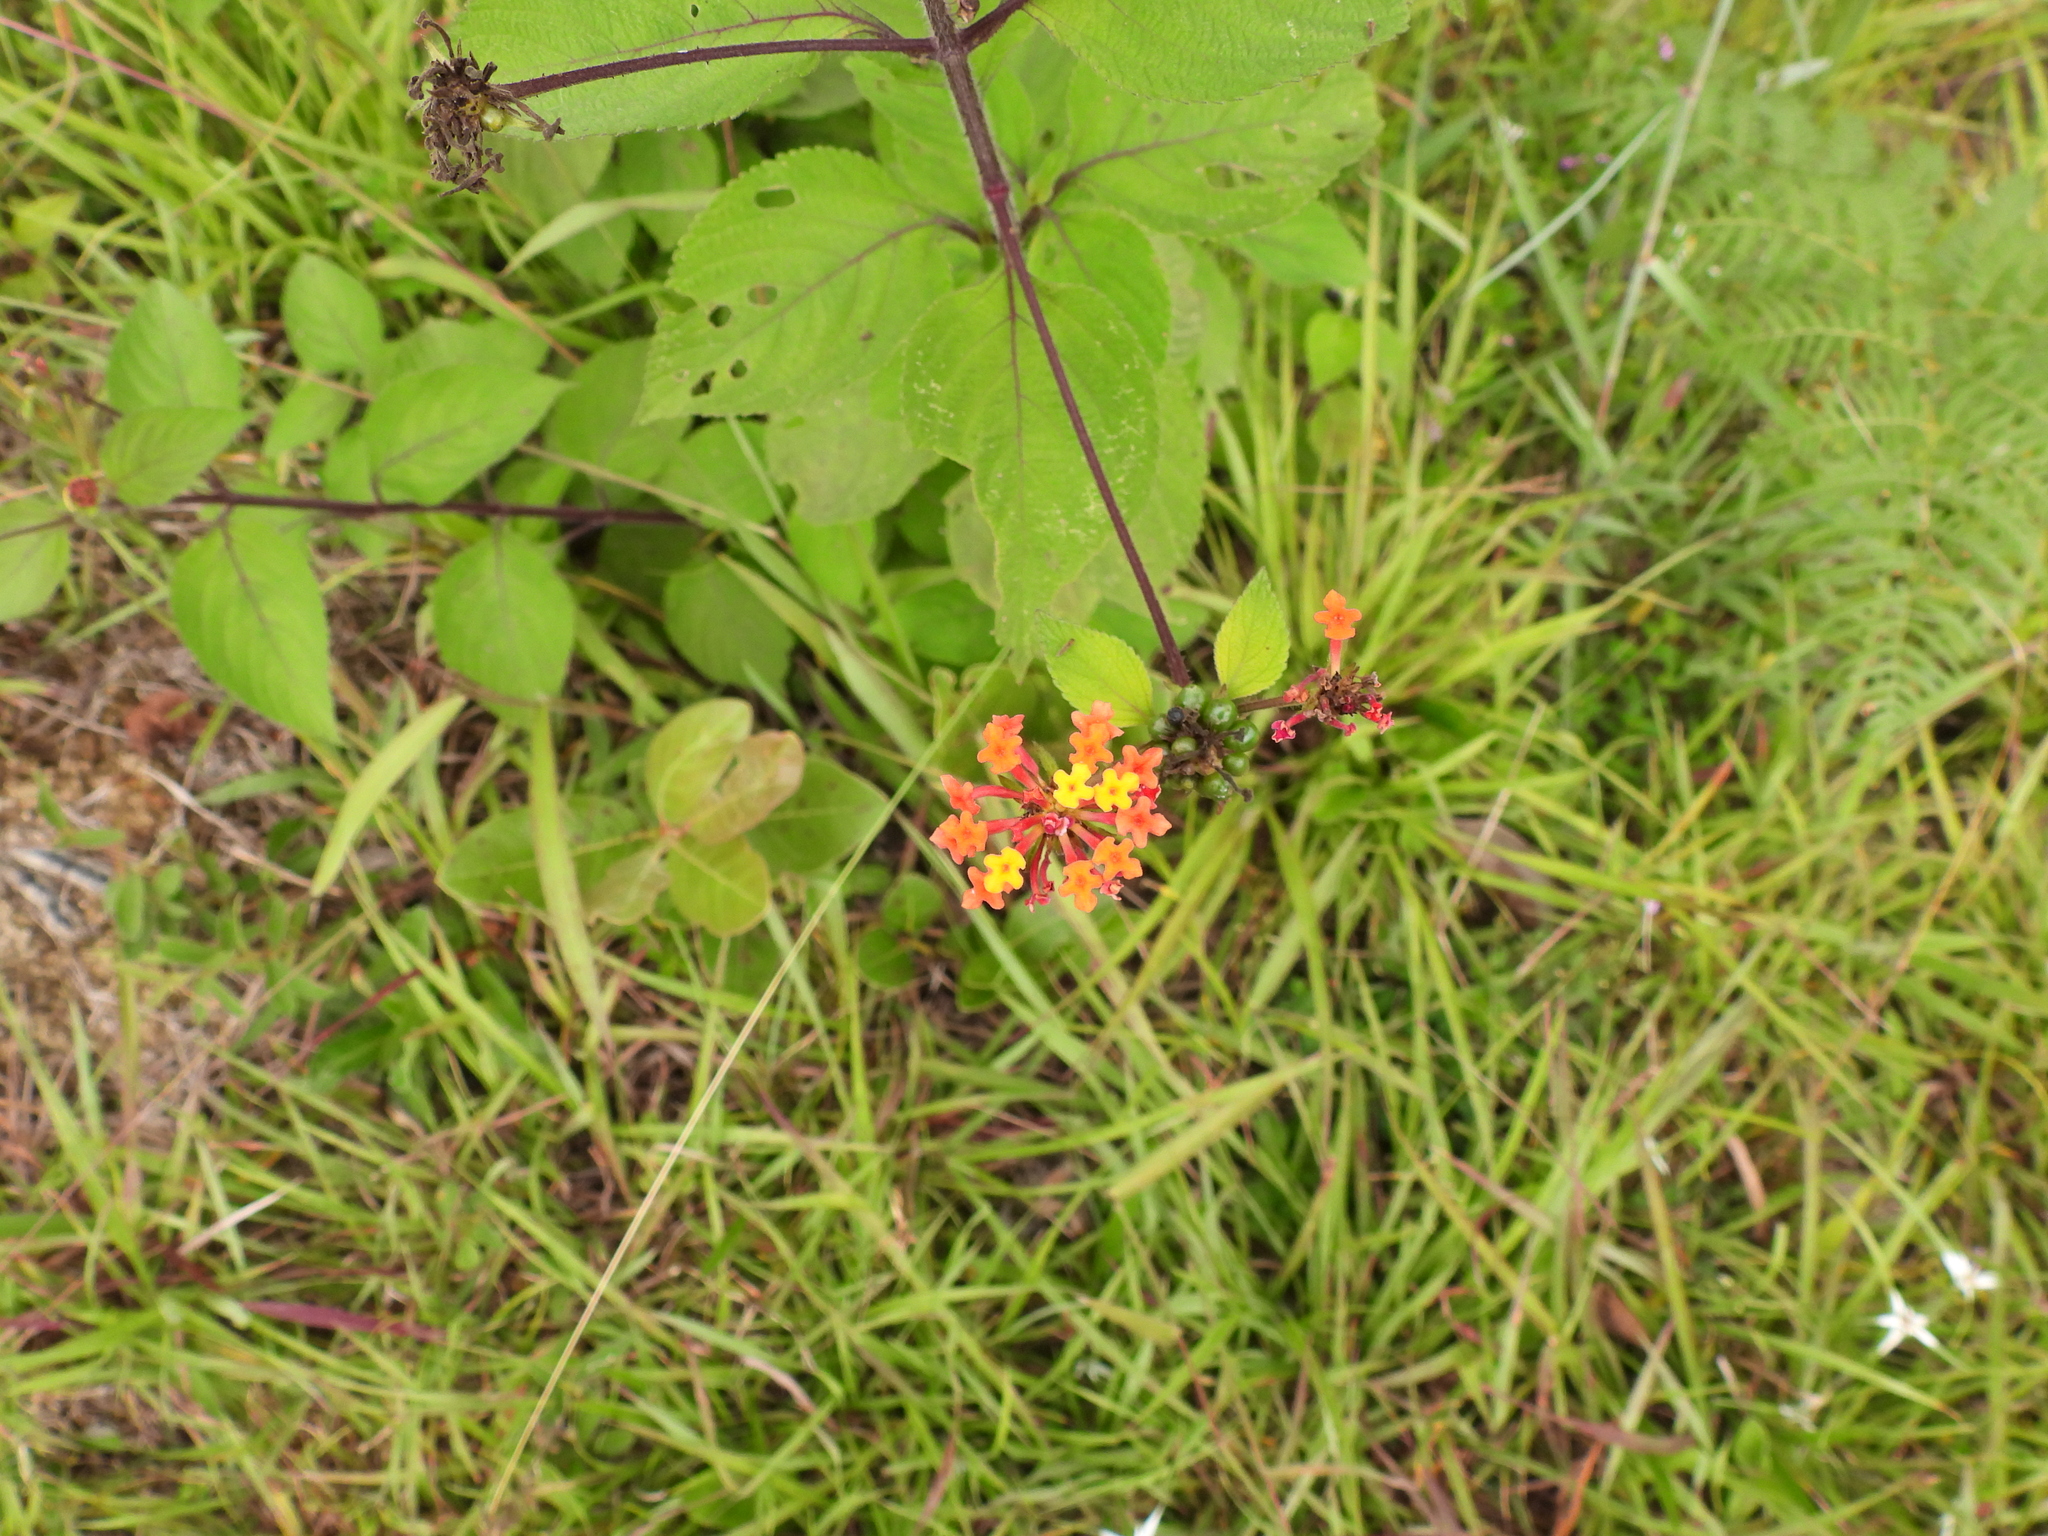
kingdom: Plantae
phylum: Tracheophyta
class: Magnoliopsida
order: Lamiales
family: Verbenaceae
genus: Lantana
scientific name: Lantana horrida
